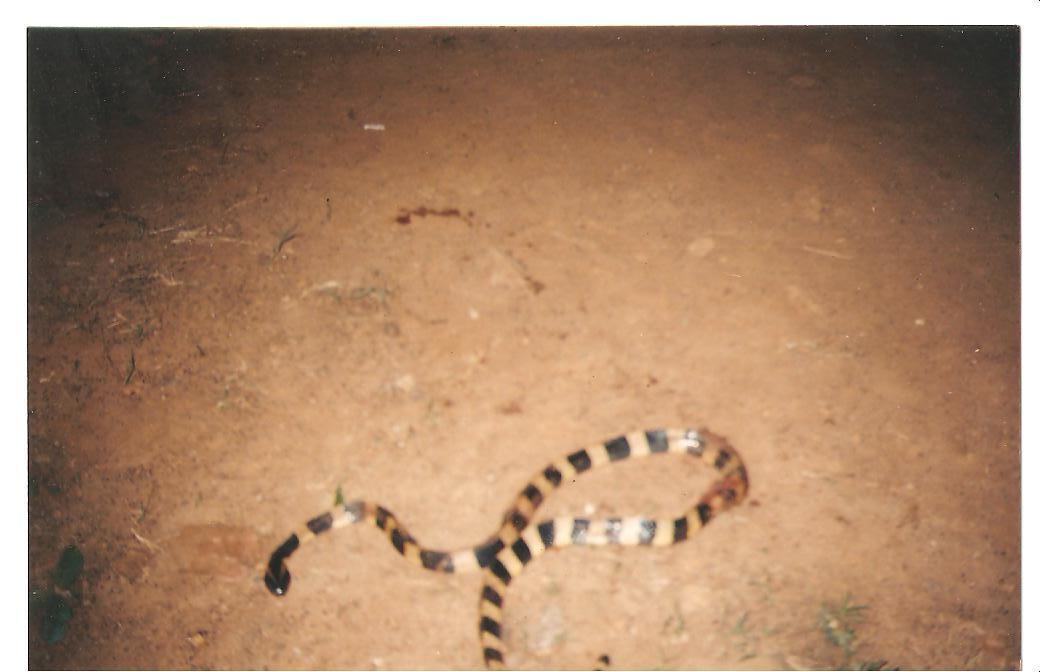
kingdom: Animalia
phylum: Chordata
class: Squamata
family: Elapidae
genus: Bungarus
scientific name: Bungarus fasciatus
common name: Banded krait
